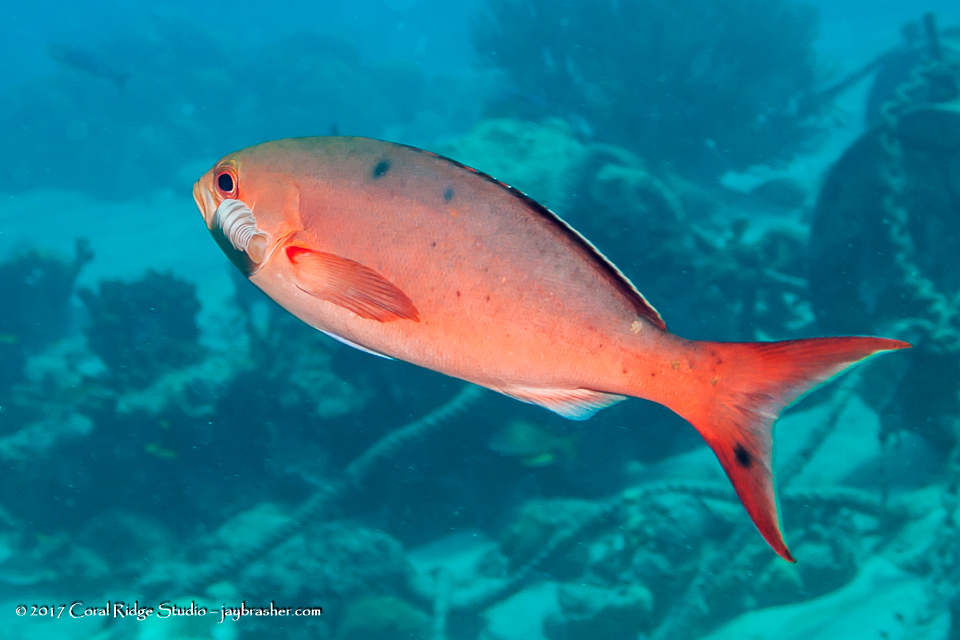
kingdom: Animalia
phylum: Chordata
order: Perciformes
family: Serranidae
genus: Paranthias
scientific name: Paranthias furcifer
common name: Creole-fish
